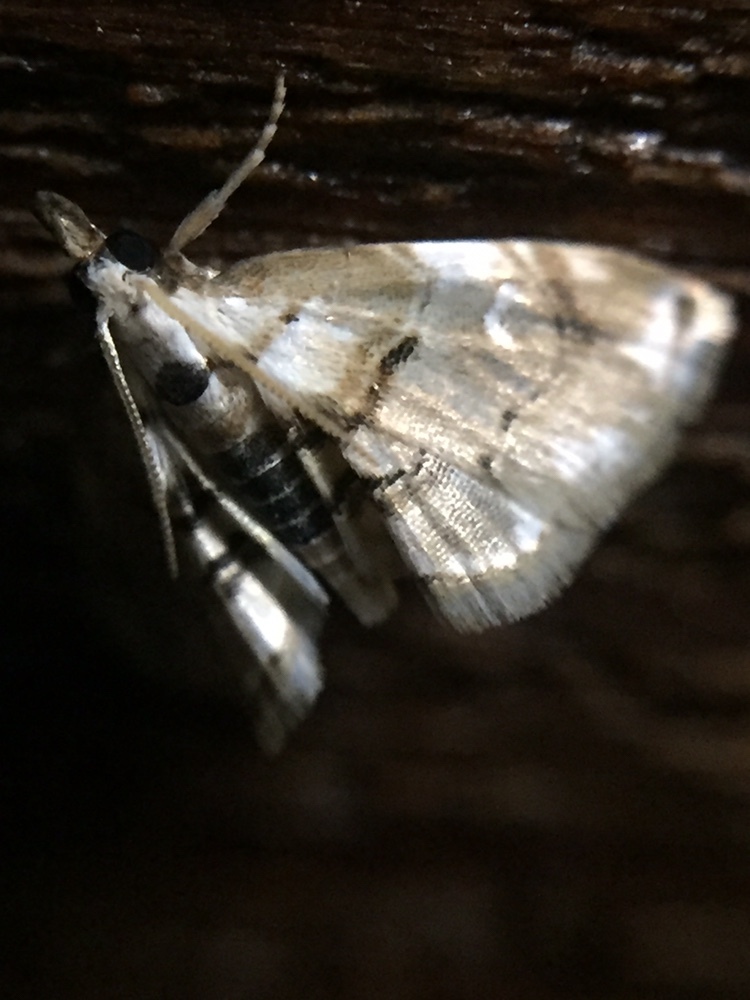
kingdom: Animalia
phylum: Arthropoda
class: Insecta
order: Lepidoptera
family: Crambidae
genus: Trichophysetis
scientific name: Trichophysetis
